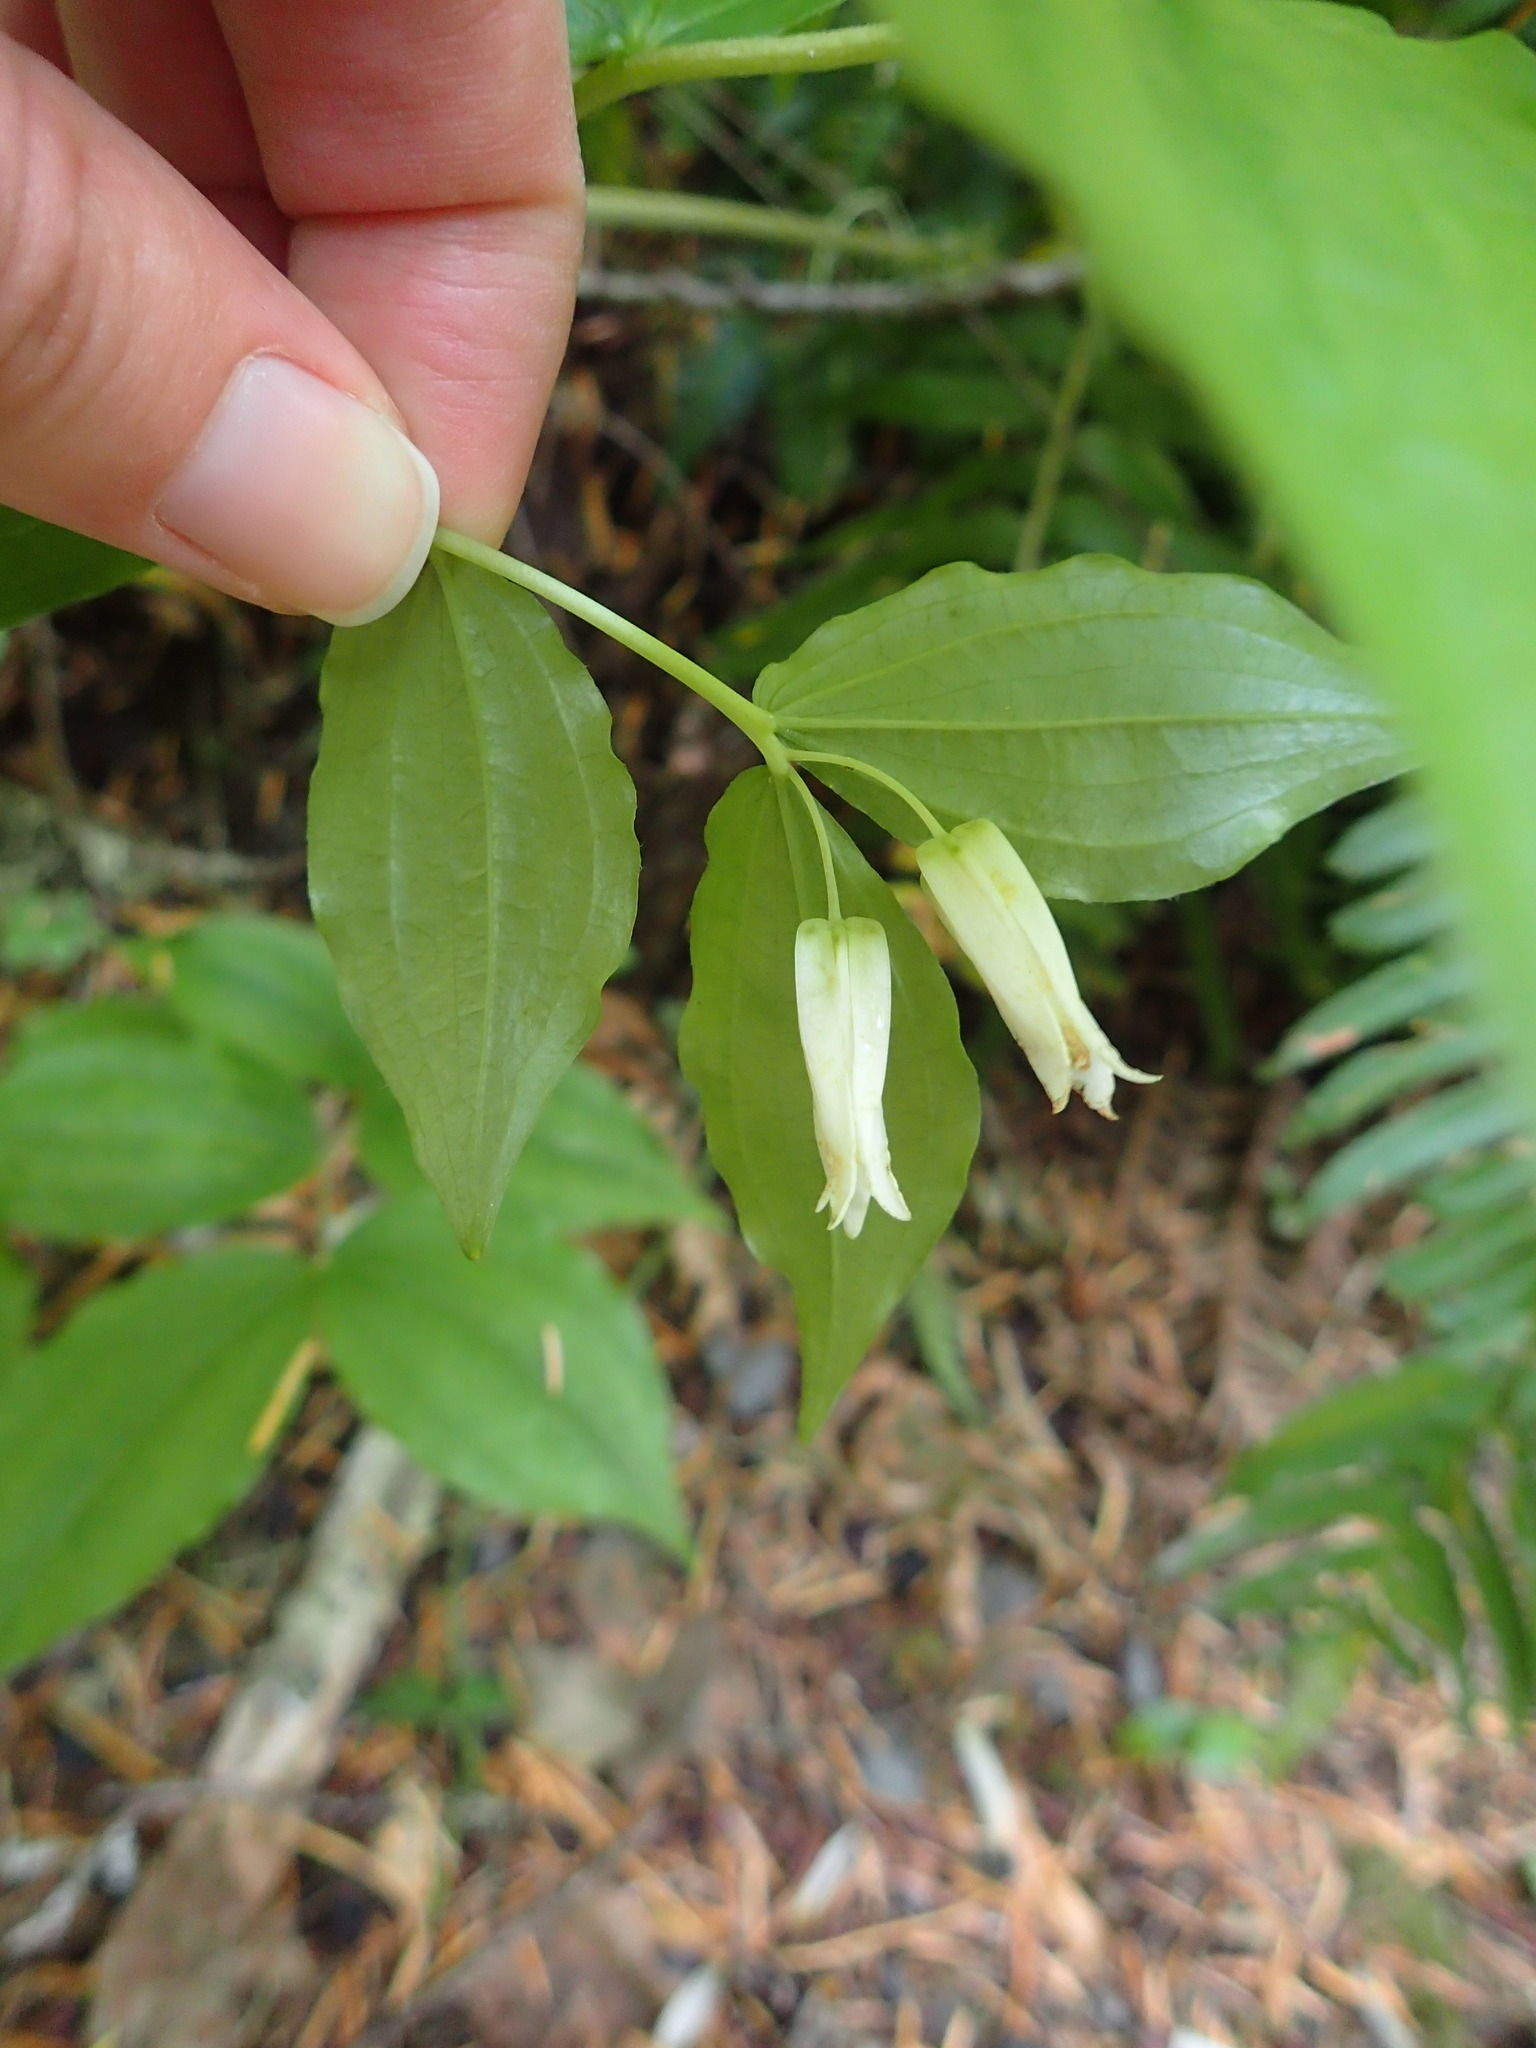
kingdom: Plantae
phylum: Tracheophyta
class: Liliopsida
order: Liliales
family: Liliaceae
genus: Prosartes
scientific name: Prosartes smithii
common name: Fairy-lantern
